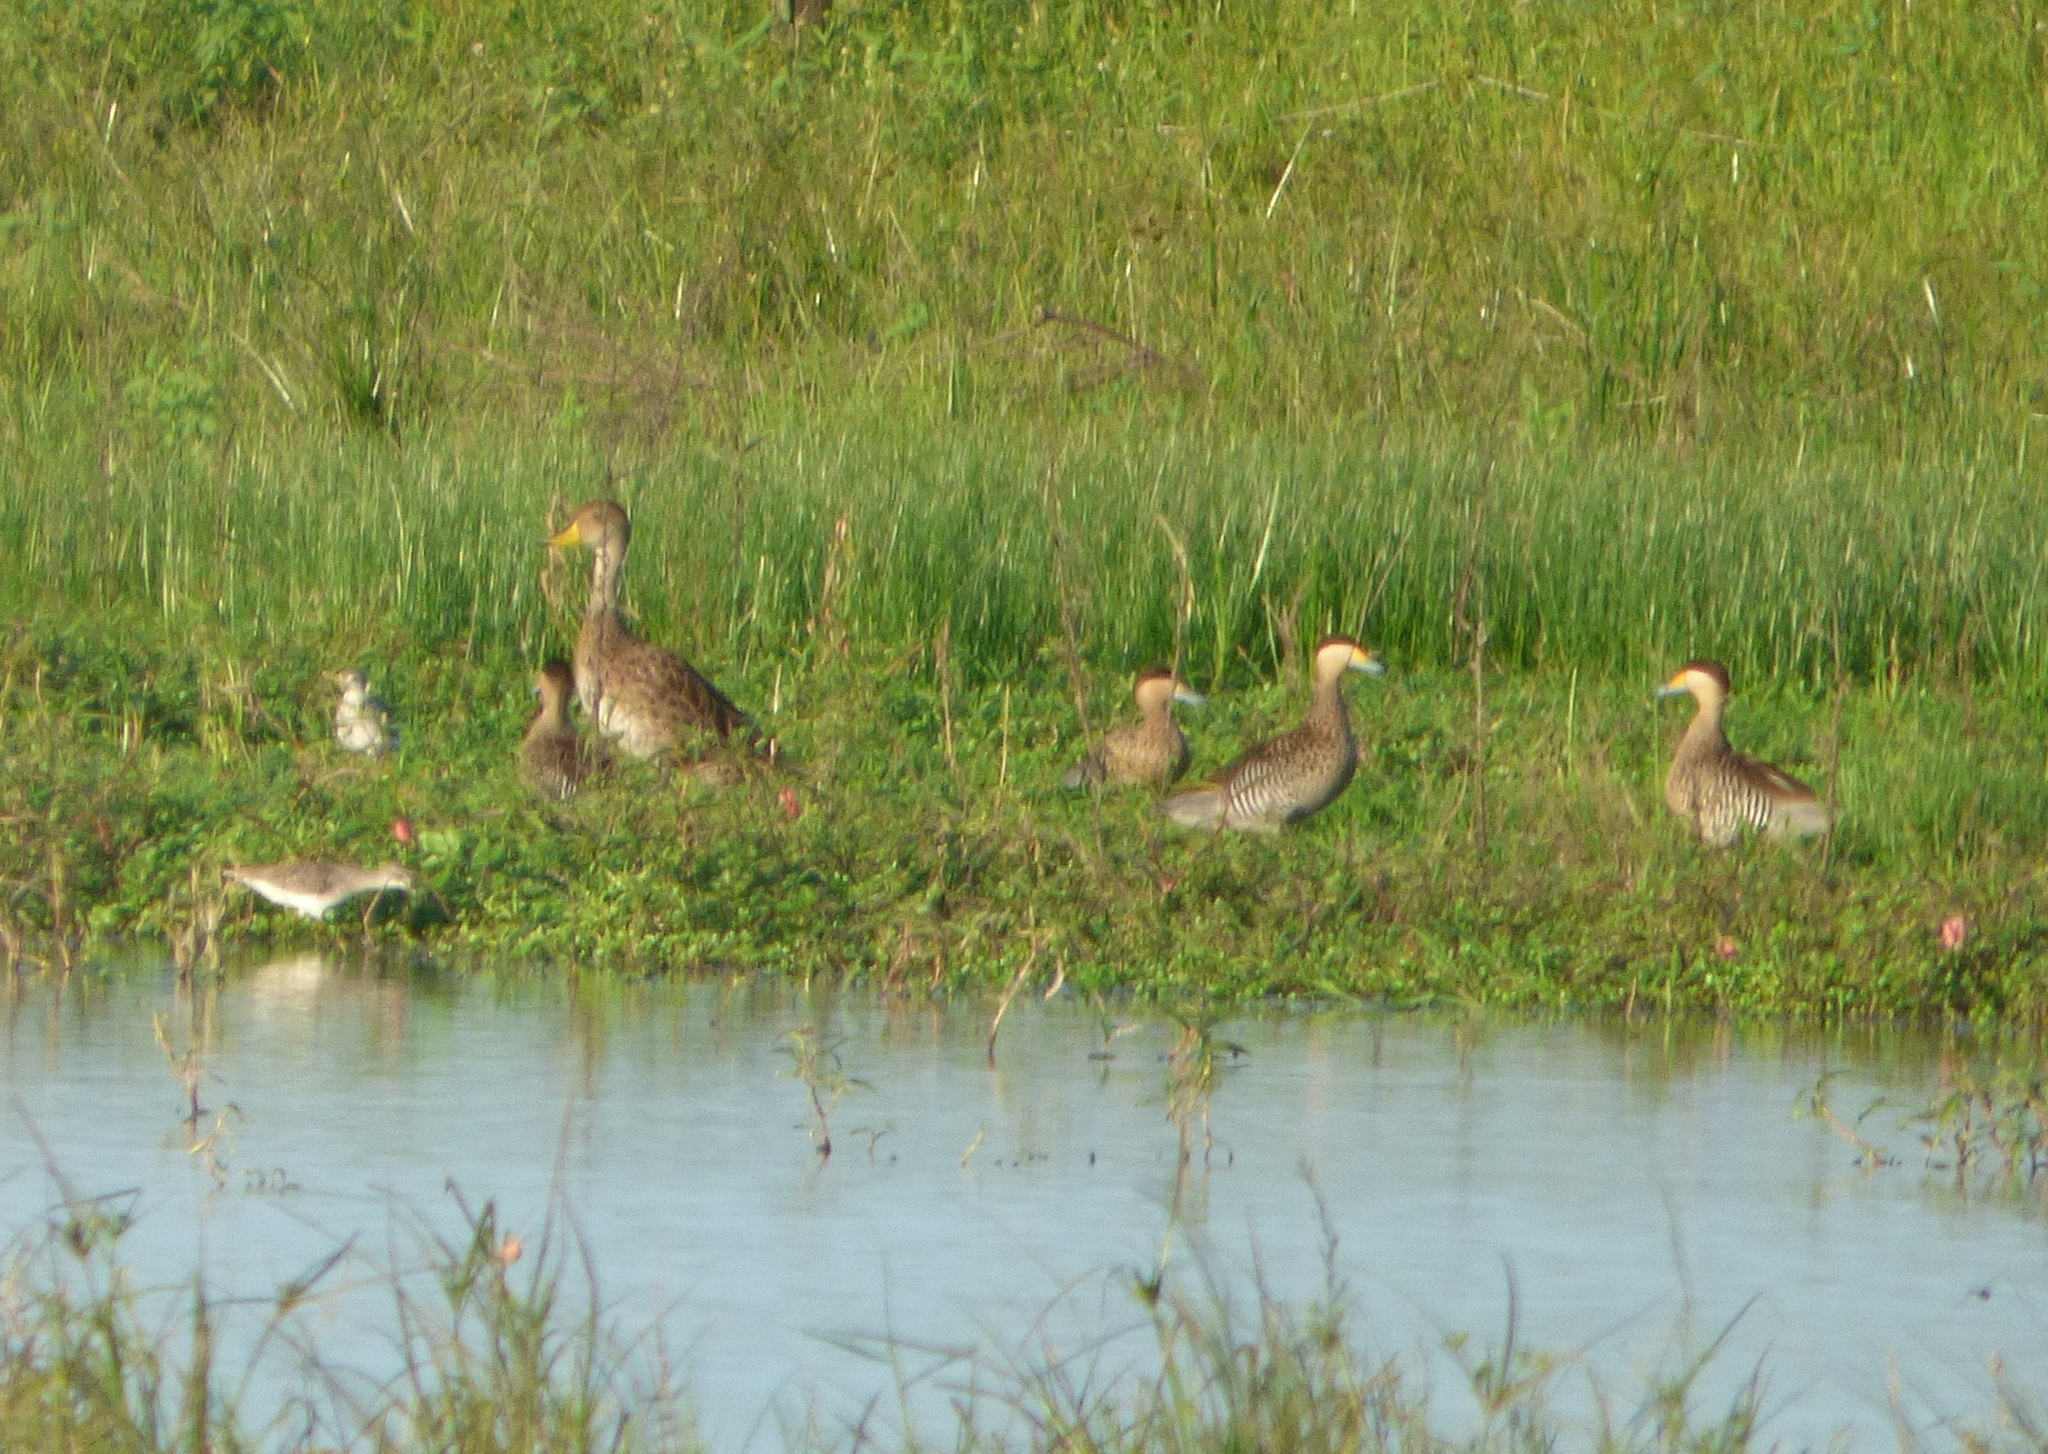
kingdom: Animalia
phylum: Chordata
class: Aves
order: Anseriformes
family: Anatidae
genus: Anas
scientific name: Anas georgica
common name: Yellow-billed pintail
